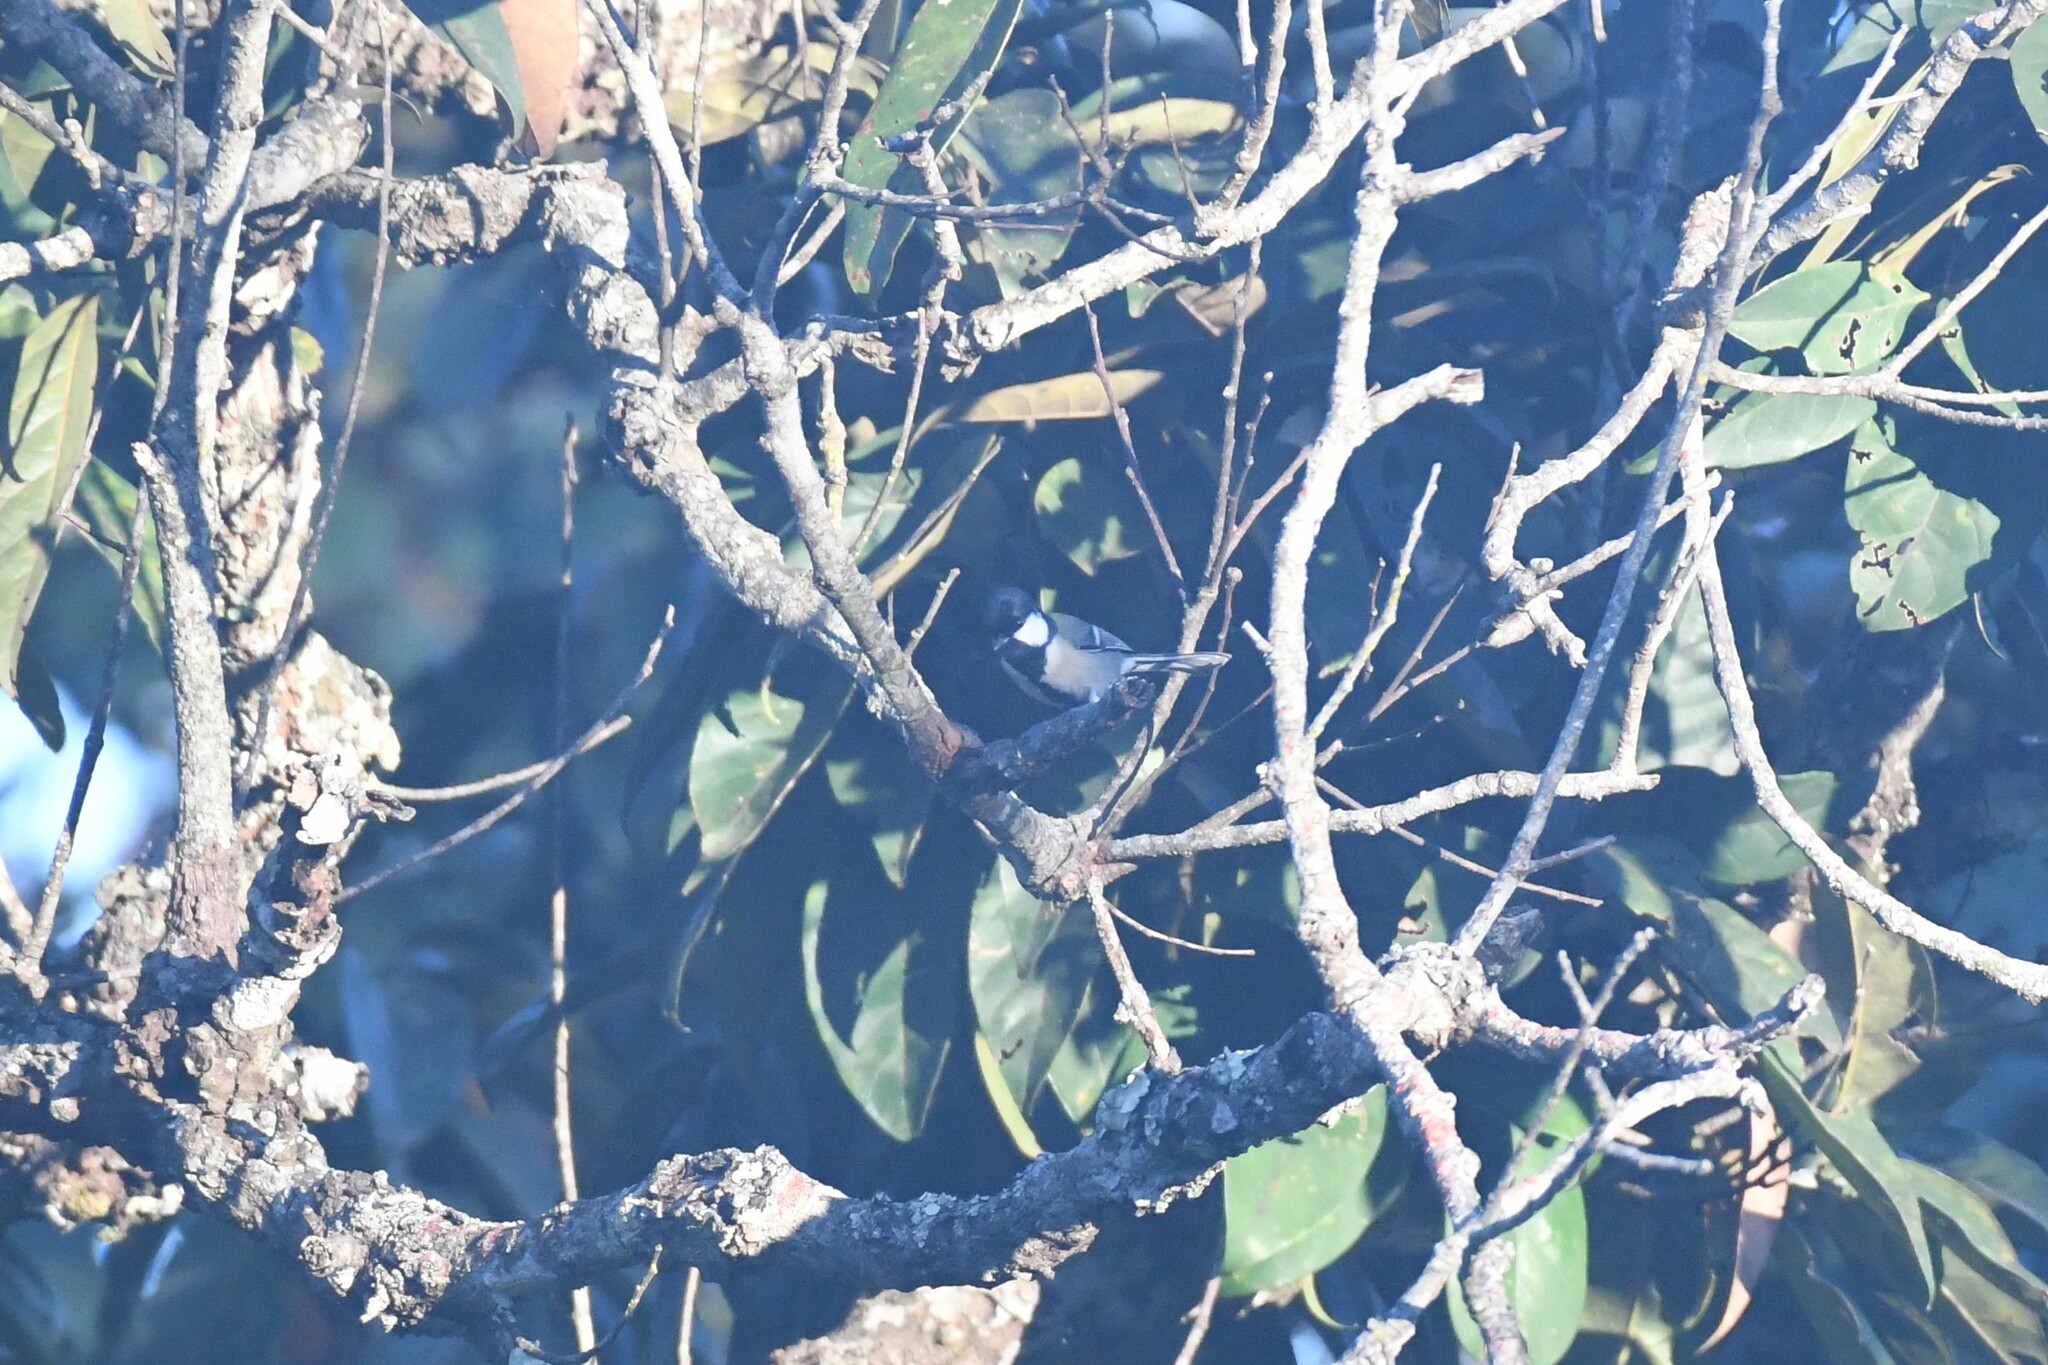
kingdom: Animalia
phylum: Chordata
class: Aves
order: Passeriformes
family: Paridae
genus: Parus
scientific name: Parus minor
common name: Japanese tit
